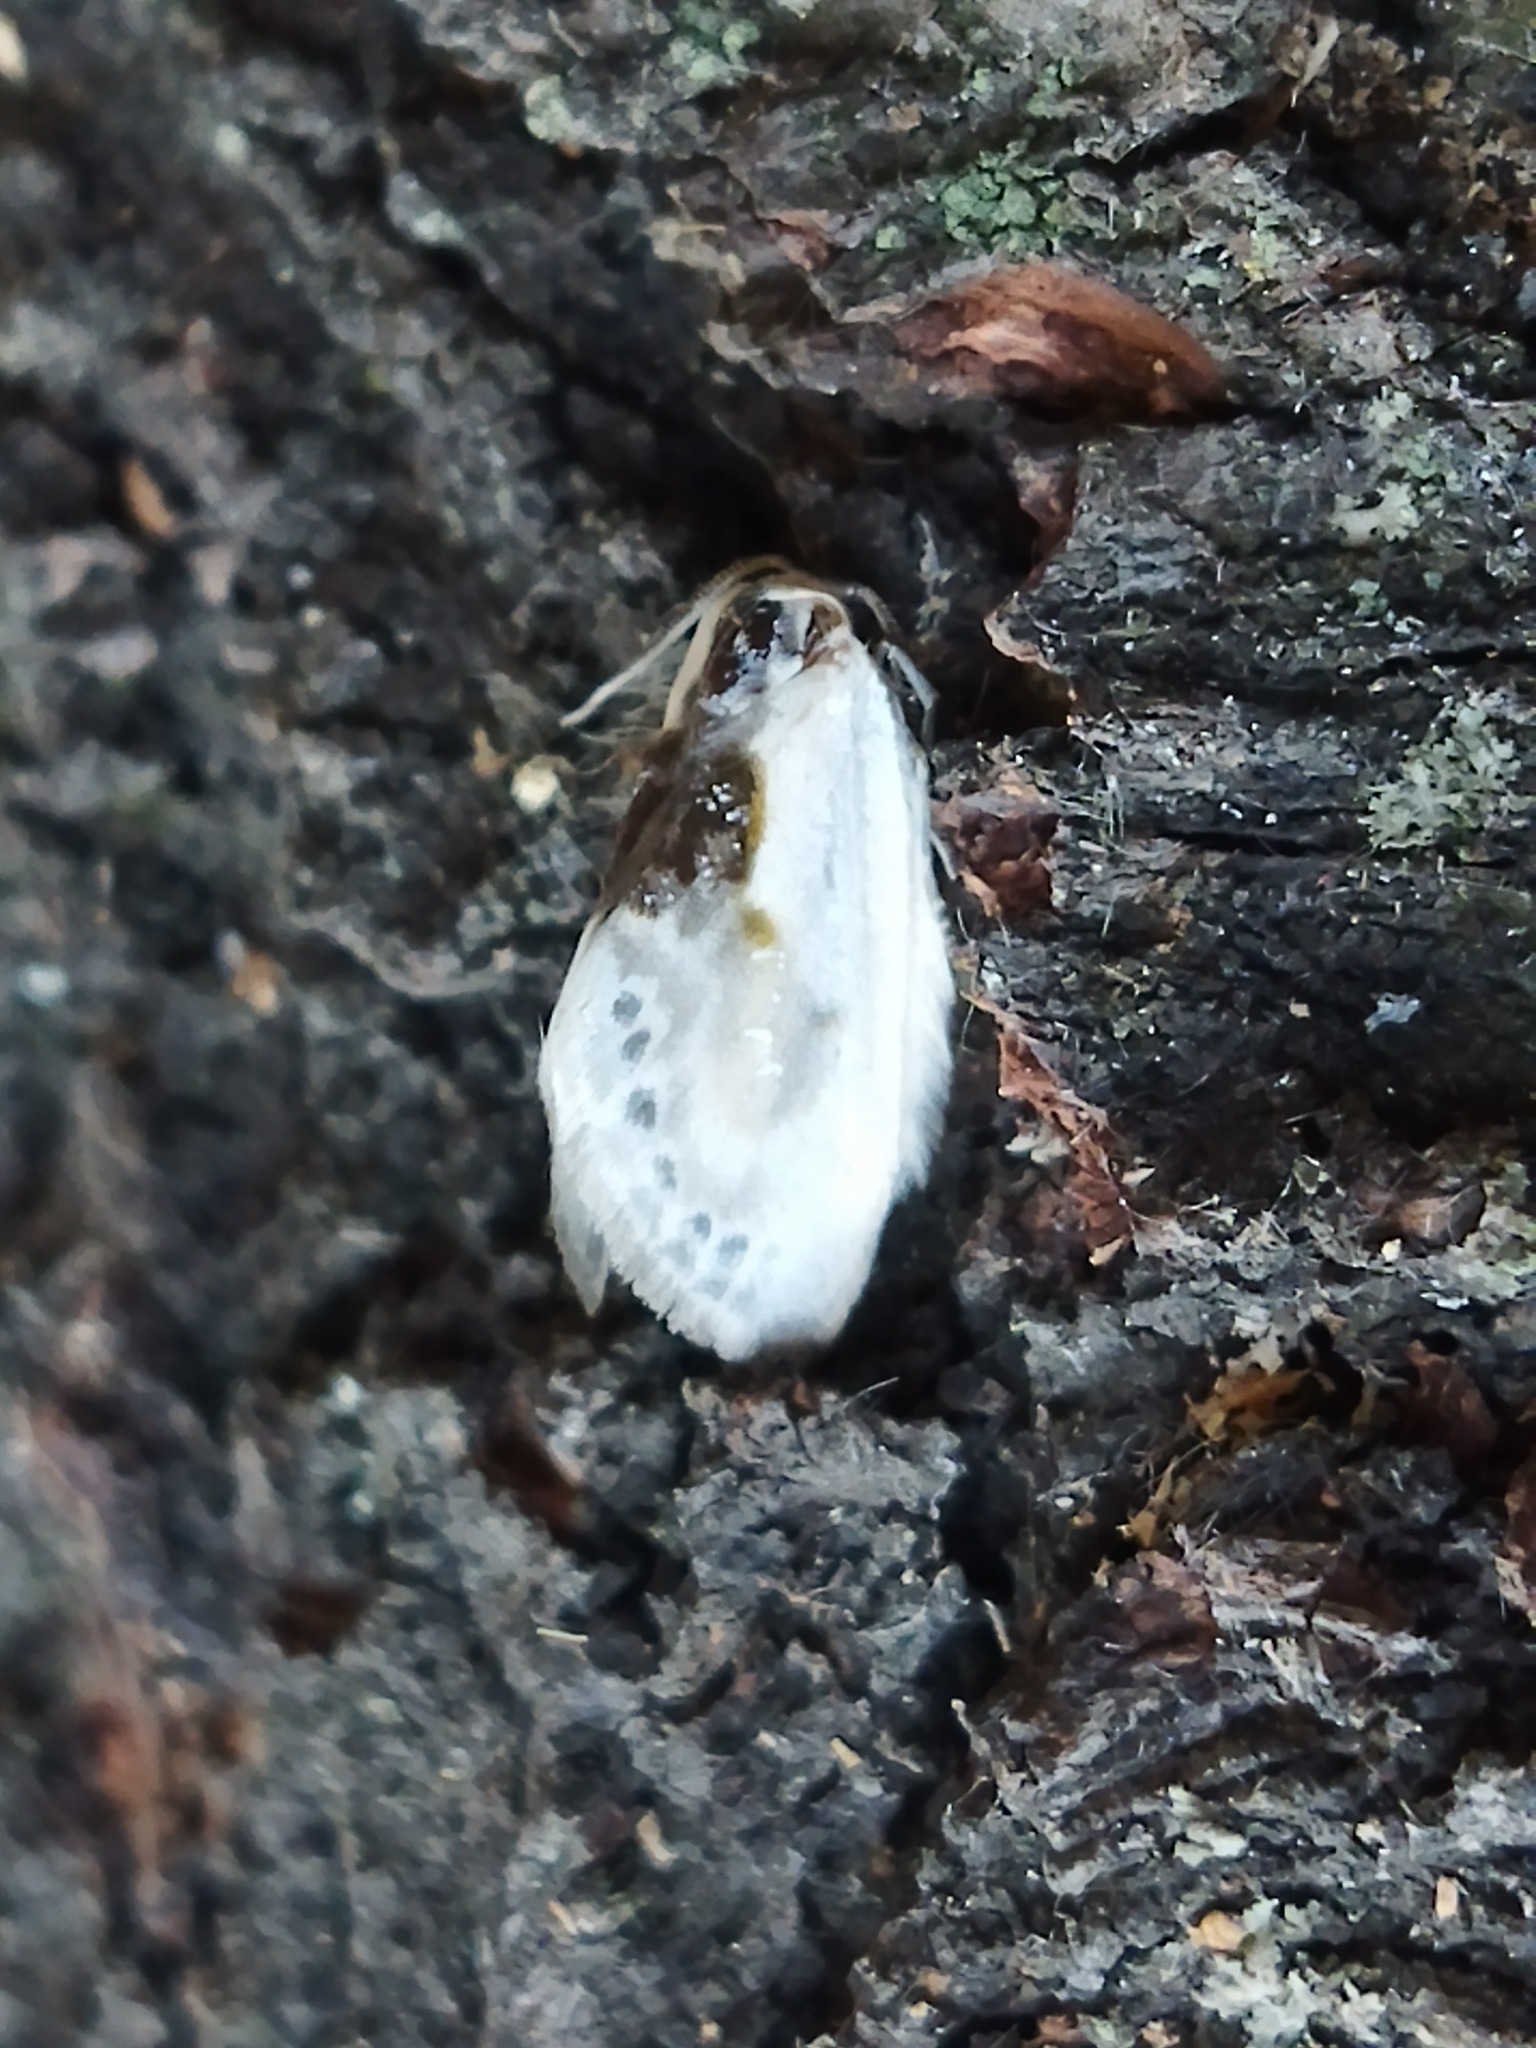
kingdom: Animalia
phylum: Arthropoda
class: Insecta
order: Lepidoptera
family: Drepanidae
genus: Cilix
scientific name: Cilix glaucata
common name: Chinese character
